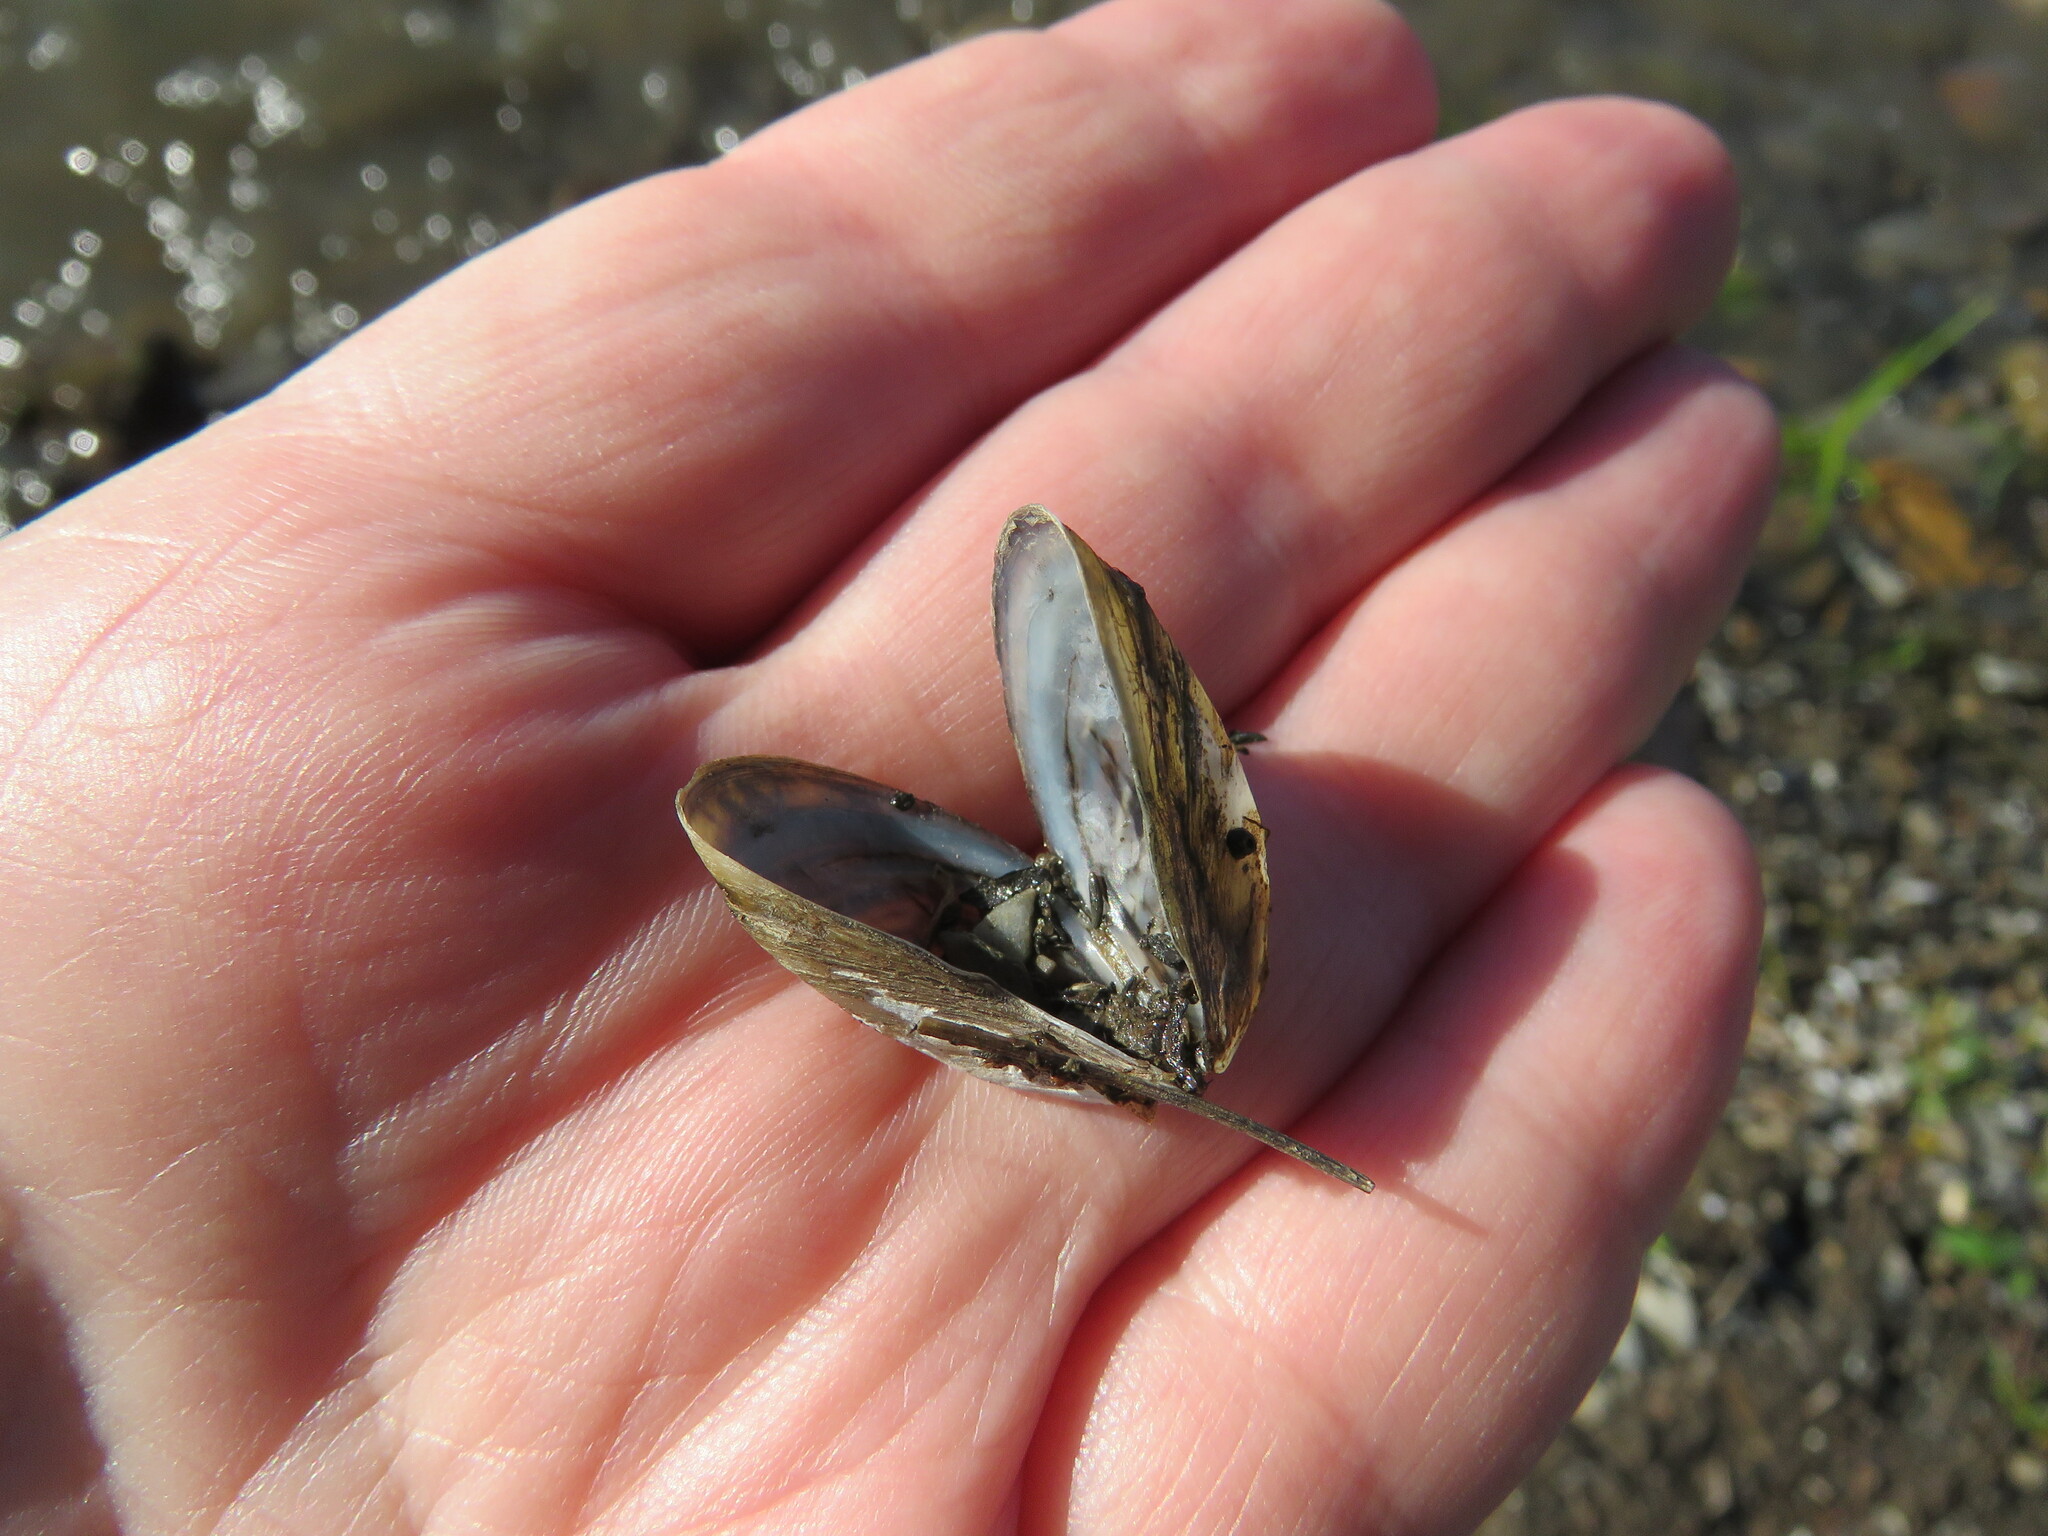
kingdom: Animalia
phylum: Mollusca
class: Bivalvia
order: Myida
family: Dreissenidae
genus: Dreissena
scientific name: Dreissena polymorpha
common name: Zebra mussel
